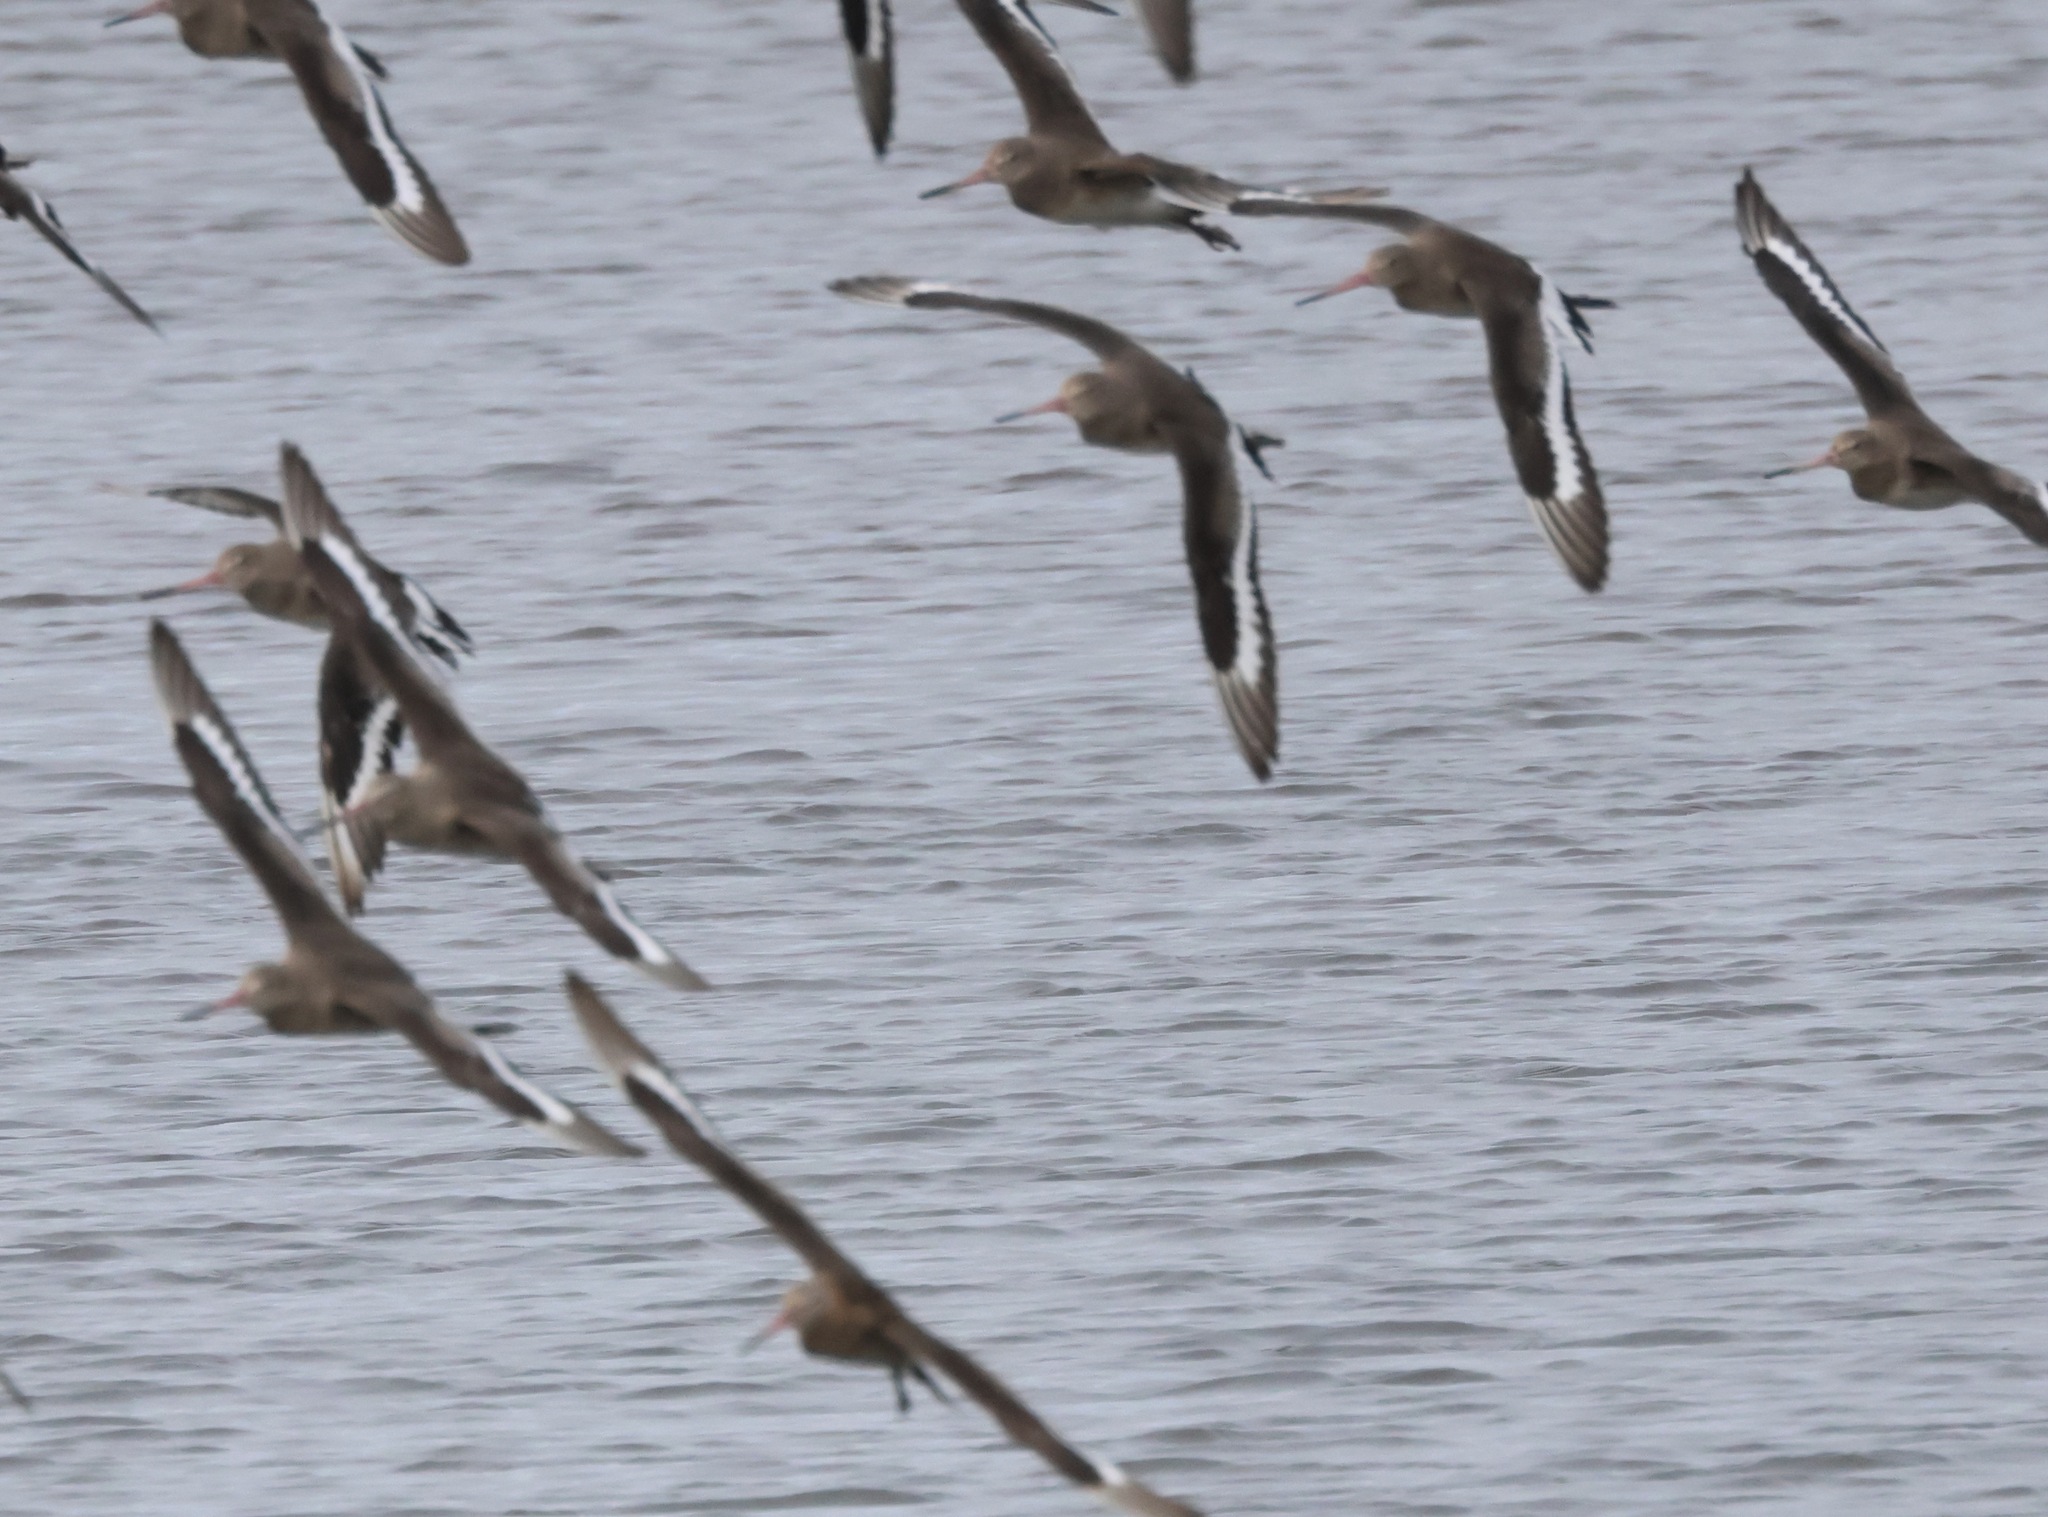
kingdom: Animalia
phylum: Chordata
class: Aves
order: Charadriiformes
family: Scolopacidae
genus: Limosa
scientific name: Limosa limosa
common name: Black-tailed godwit
